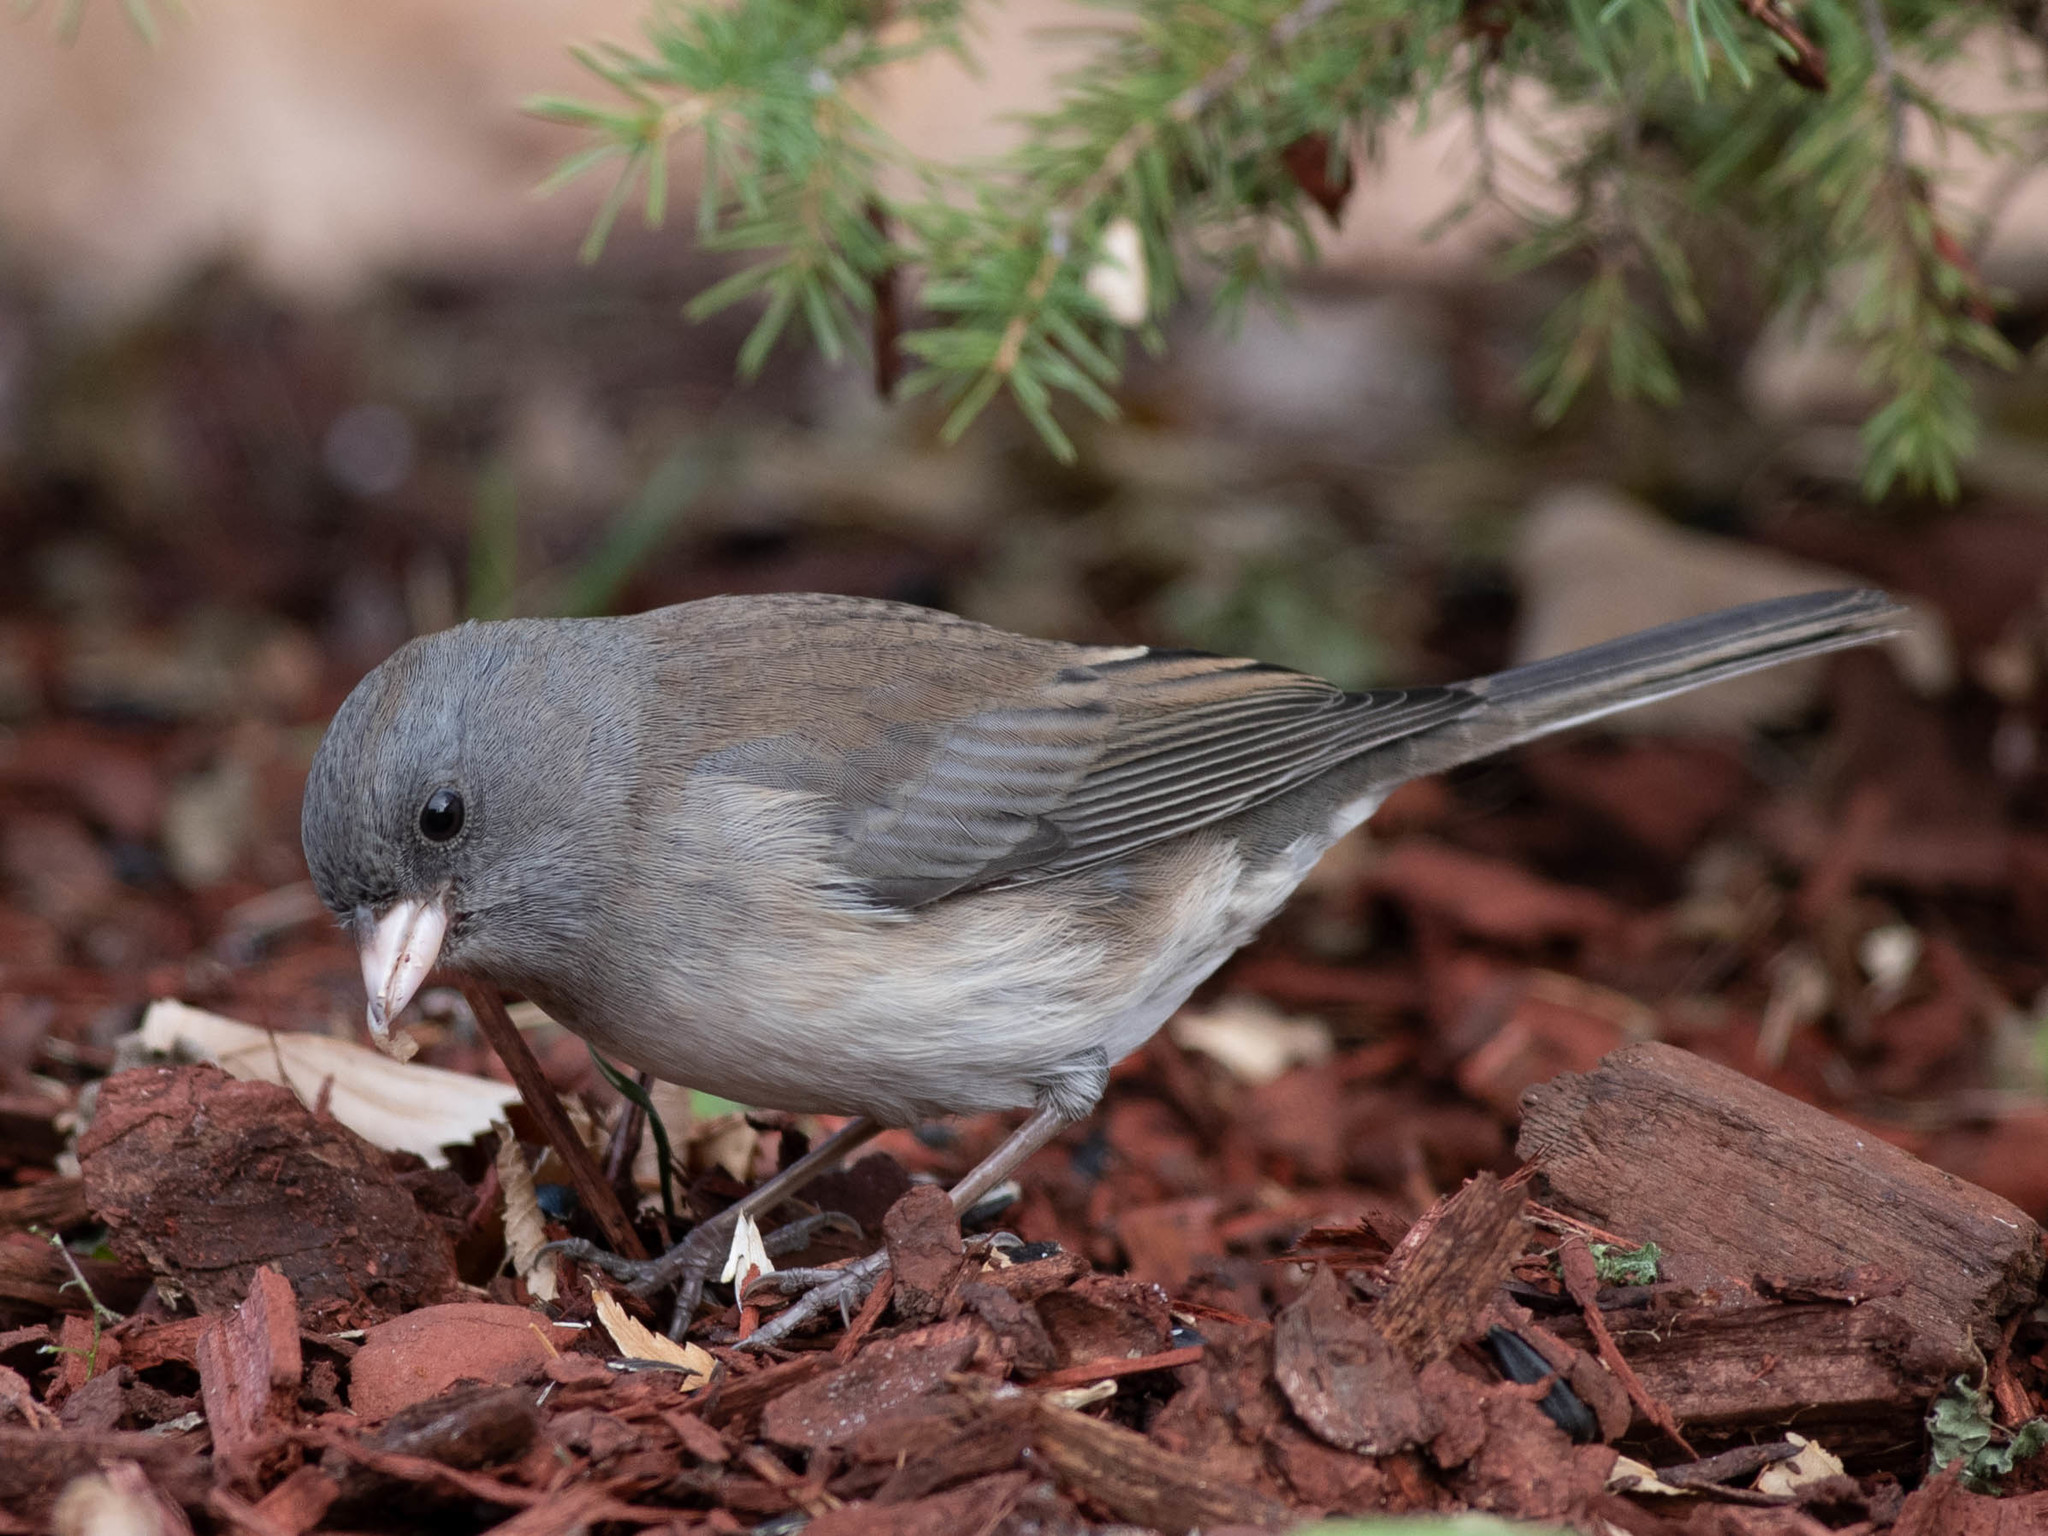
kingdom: Animalia
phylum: Chordata
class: Aves
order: Passeriformes
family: Passerellidae
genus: Junco
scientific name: Junco hyemalis
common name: Dark-eyed junco
